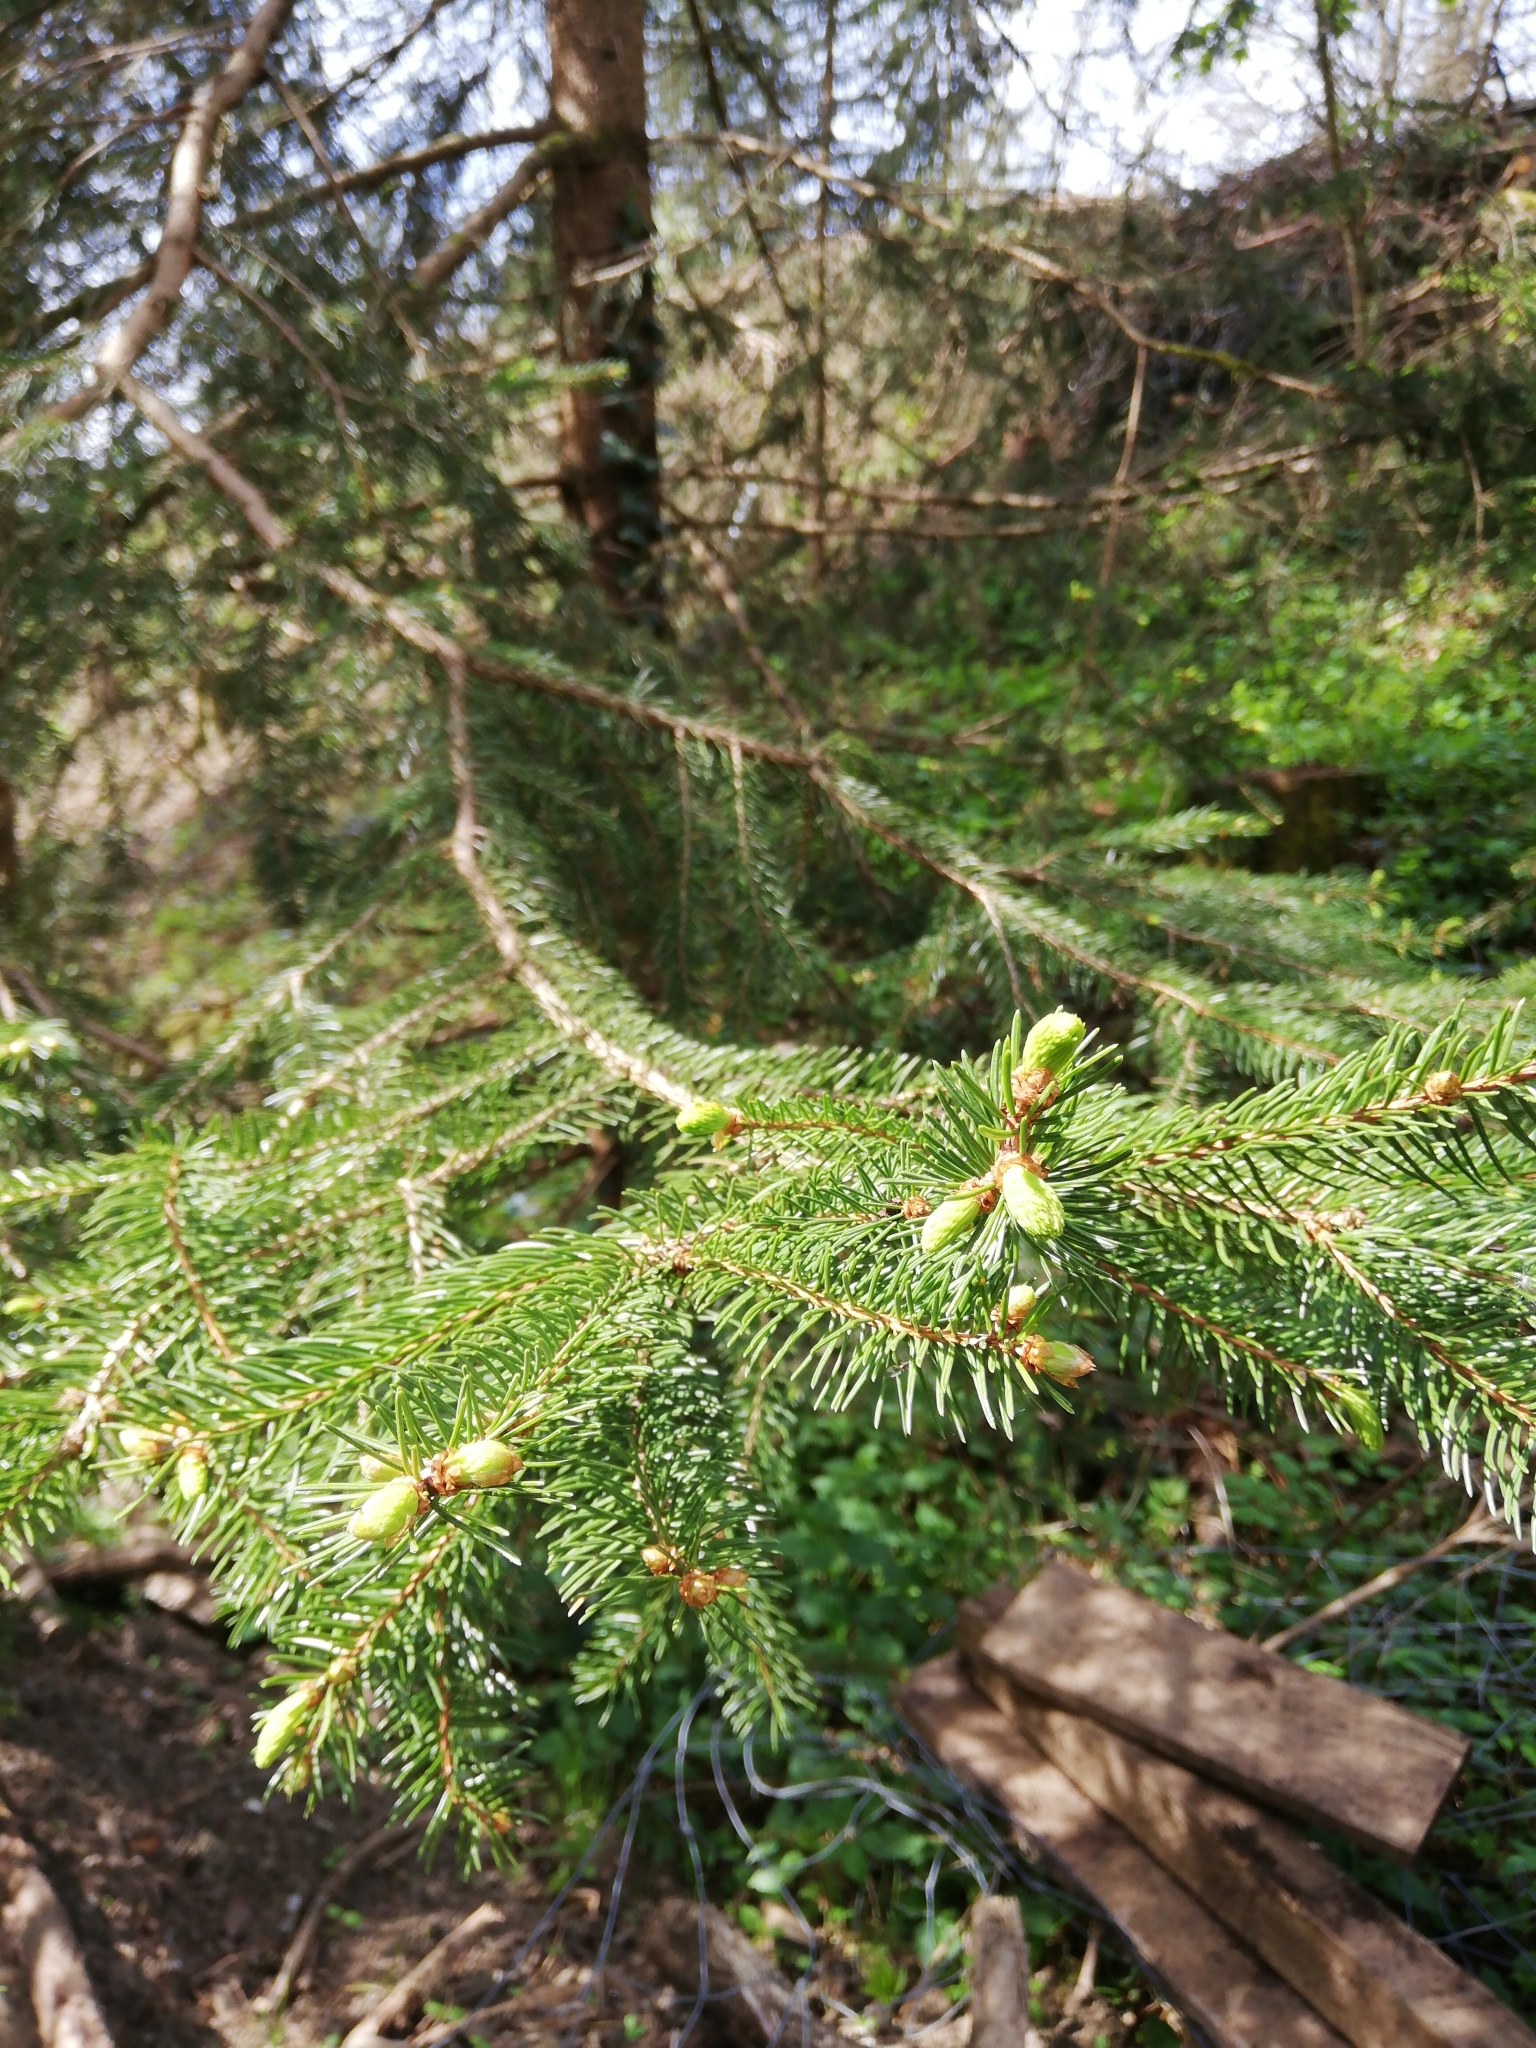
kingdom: Plantae
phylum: Tracheophyta
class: Pinopsida
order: Pinales
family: Pinaceae
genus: Picea
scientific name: Picea abies
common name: Norway spruce
